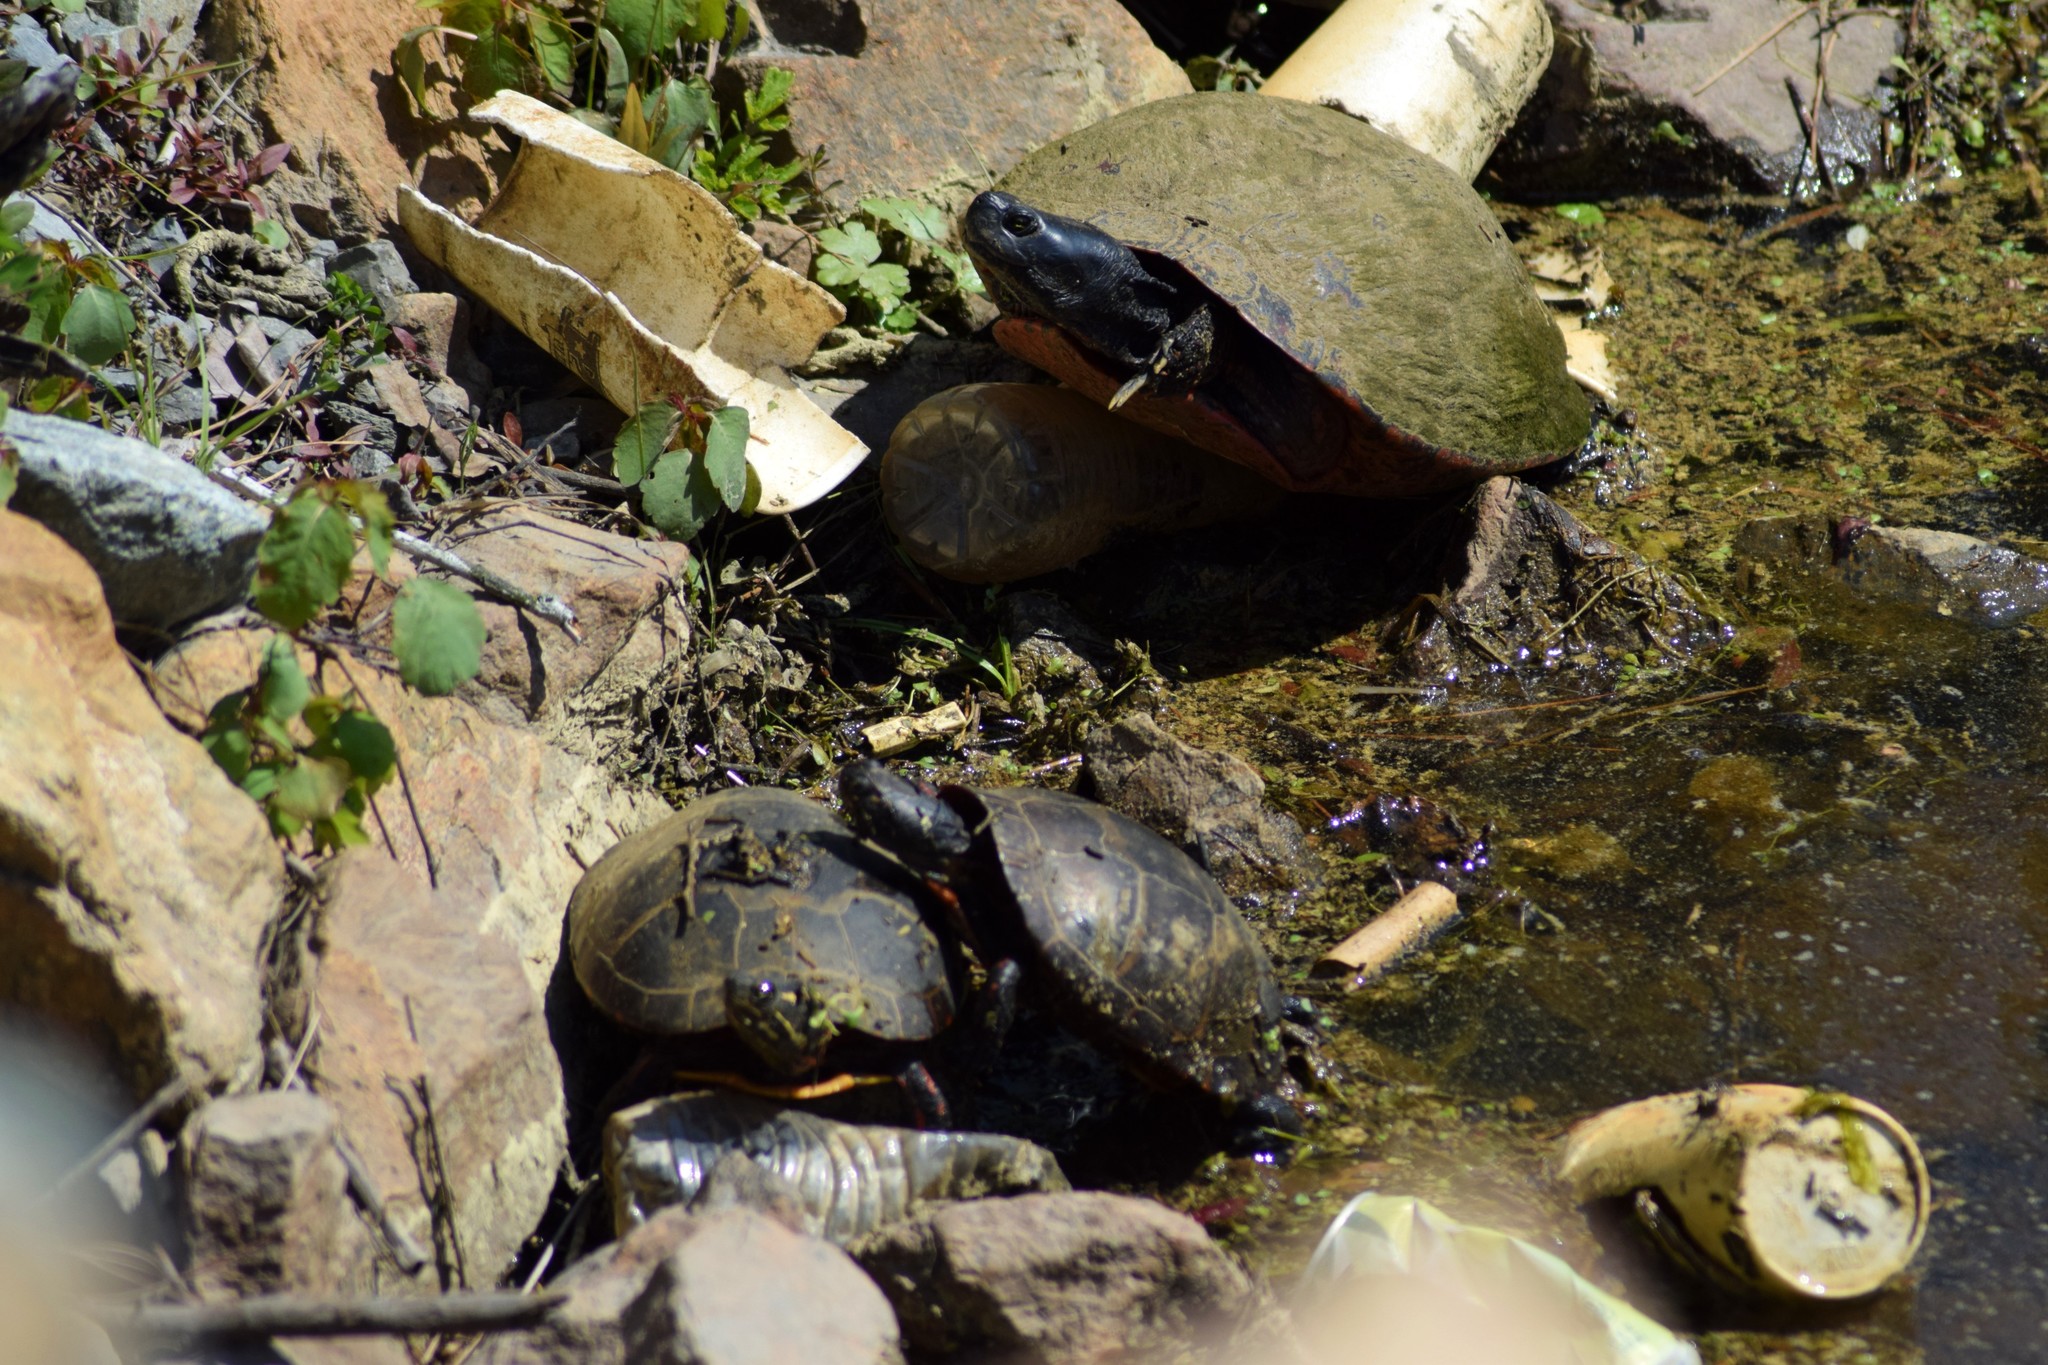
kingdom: Animalia
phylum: Chordata
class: Testudines
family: Emydidae
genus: Chrysemys
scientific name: Chrysemys picta
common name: Painted turtle
